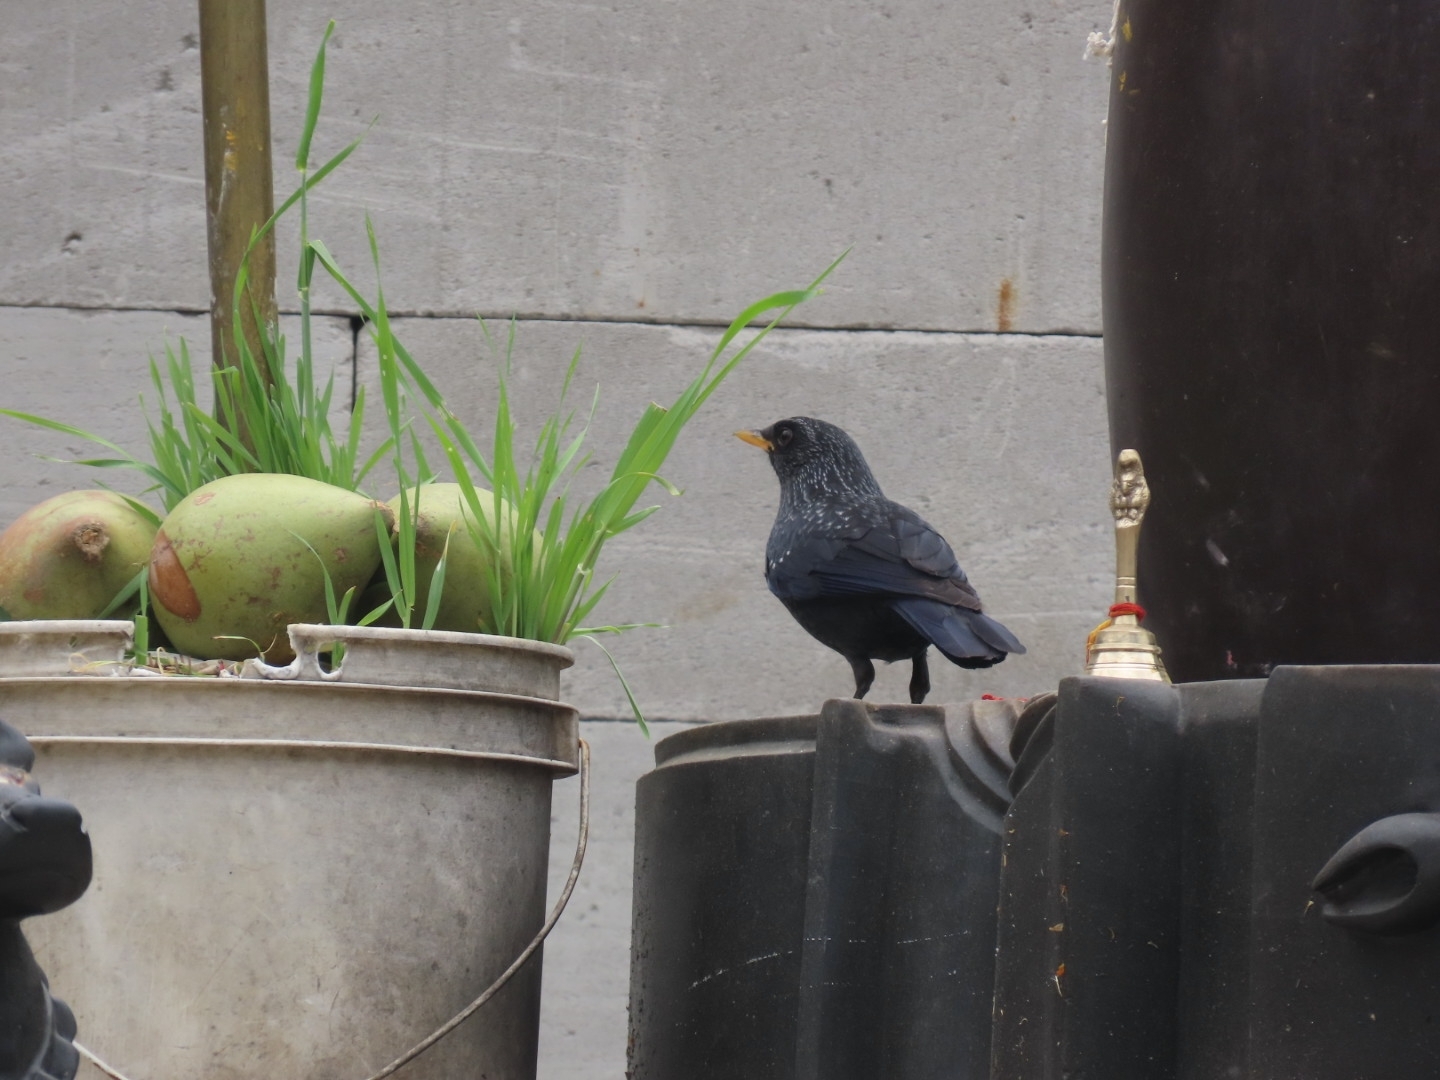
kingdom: Animalia
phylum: Chordata
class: Aves
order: Passeriformes
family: Muscicapidae
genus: Myophonus
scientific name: Myophonus caeruleus
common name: Blue whistling-thrush
